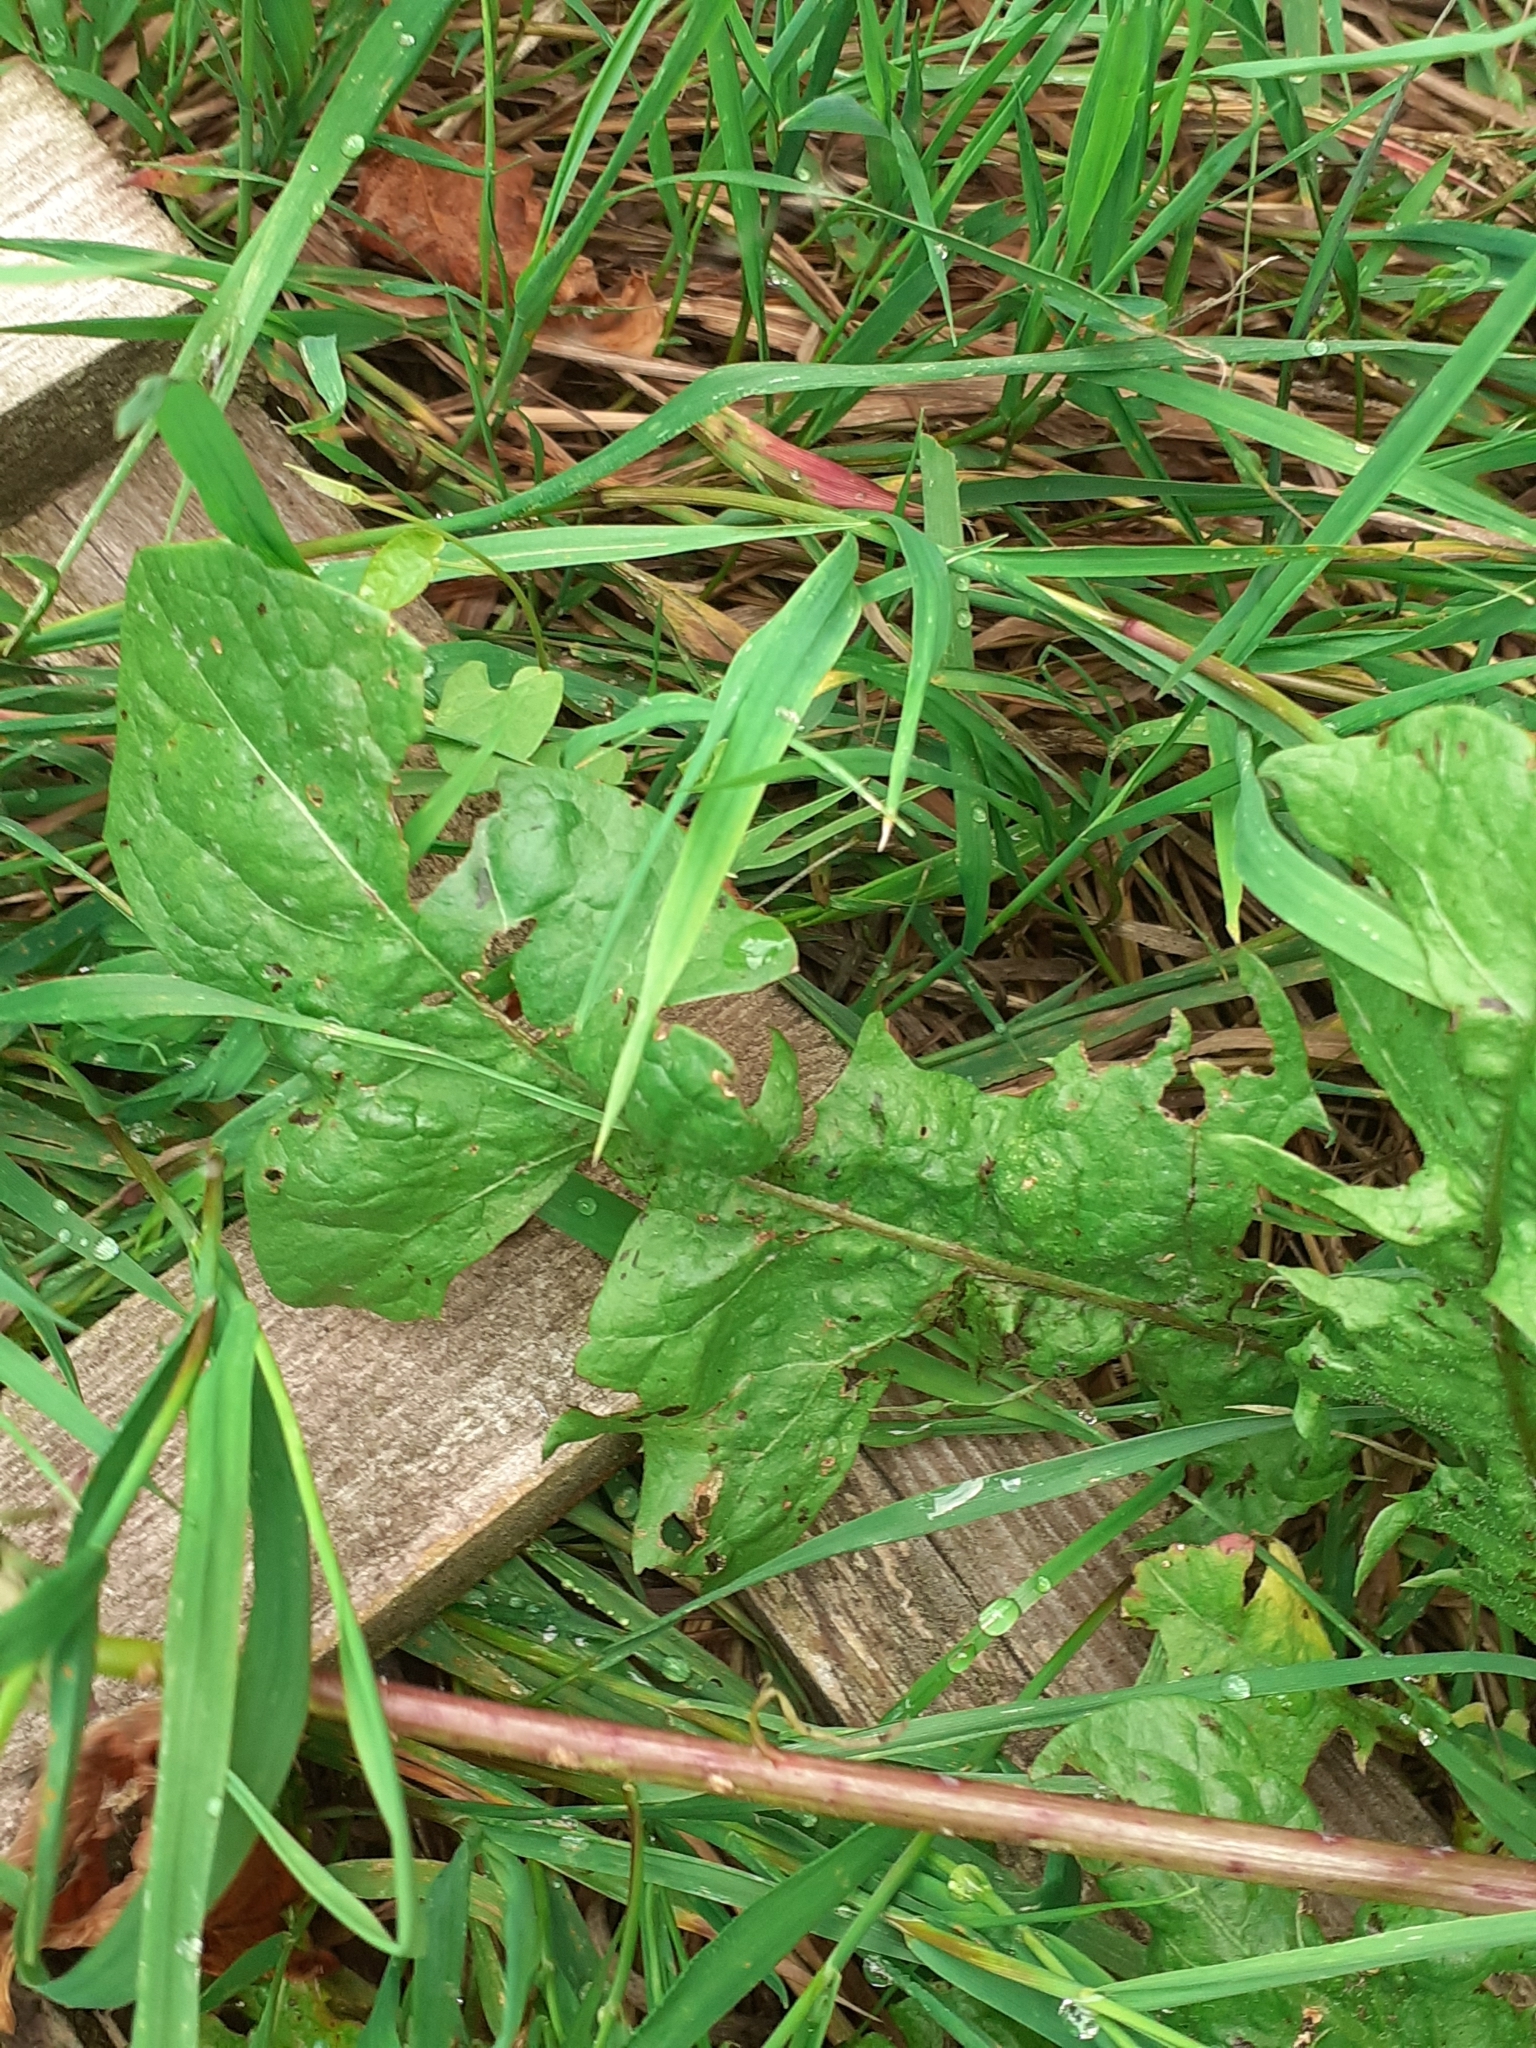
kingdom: Plantae
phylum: Tracheophyta
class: Magnoliopsida
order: Asterales
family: Asteraceae
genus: Taraxacum
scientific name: Taraxacum officinale
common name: Common dandelion
